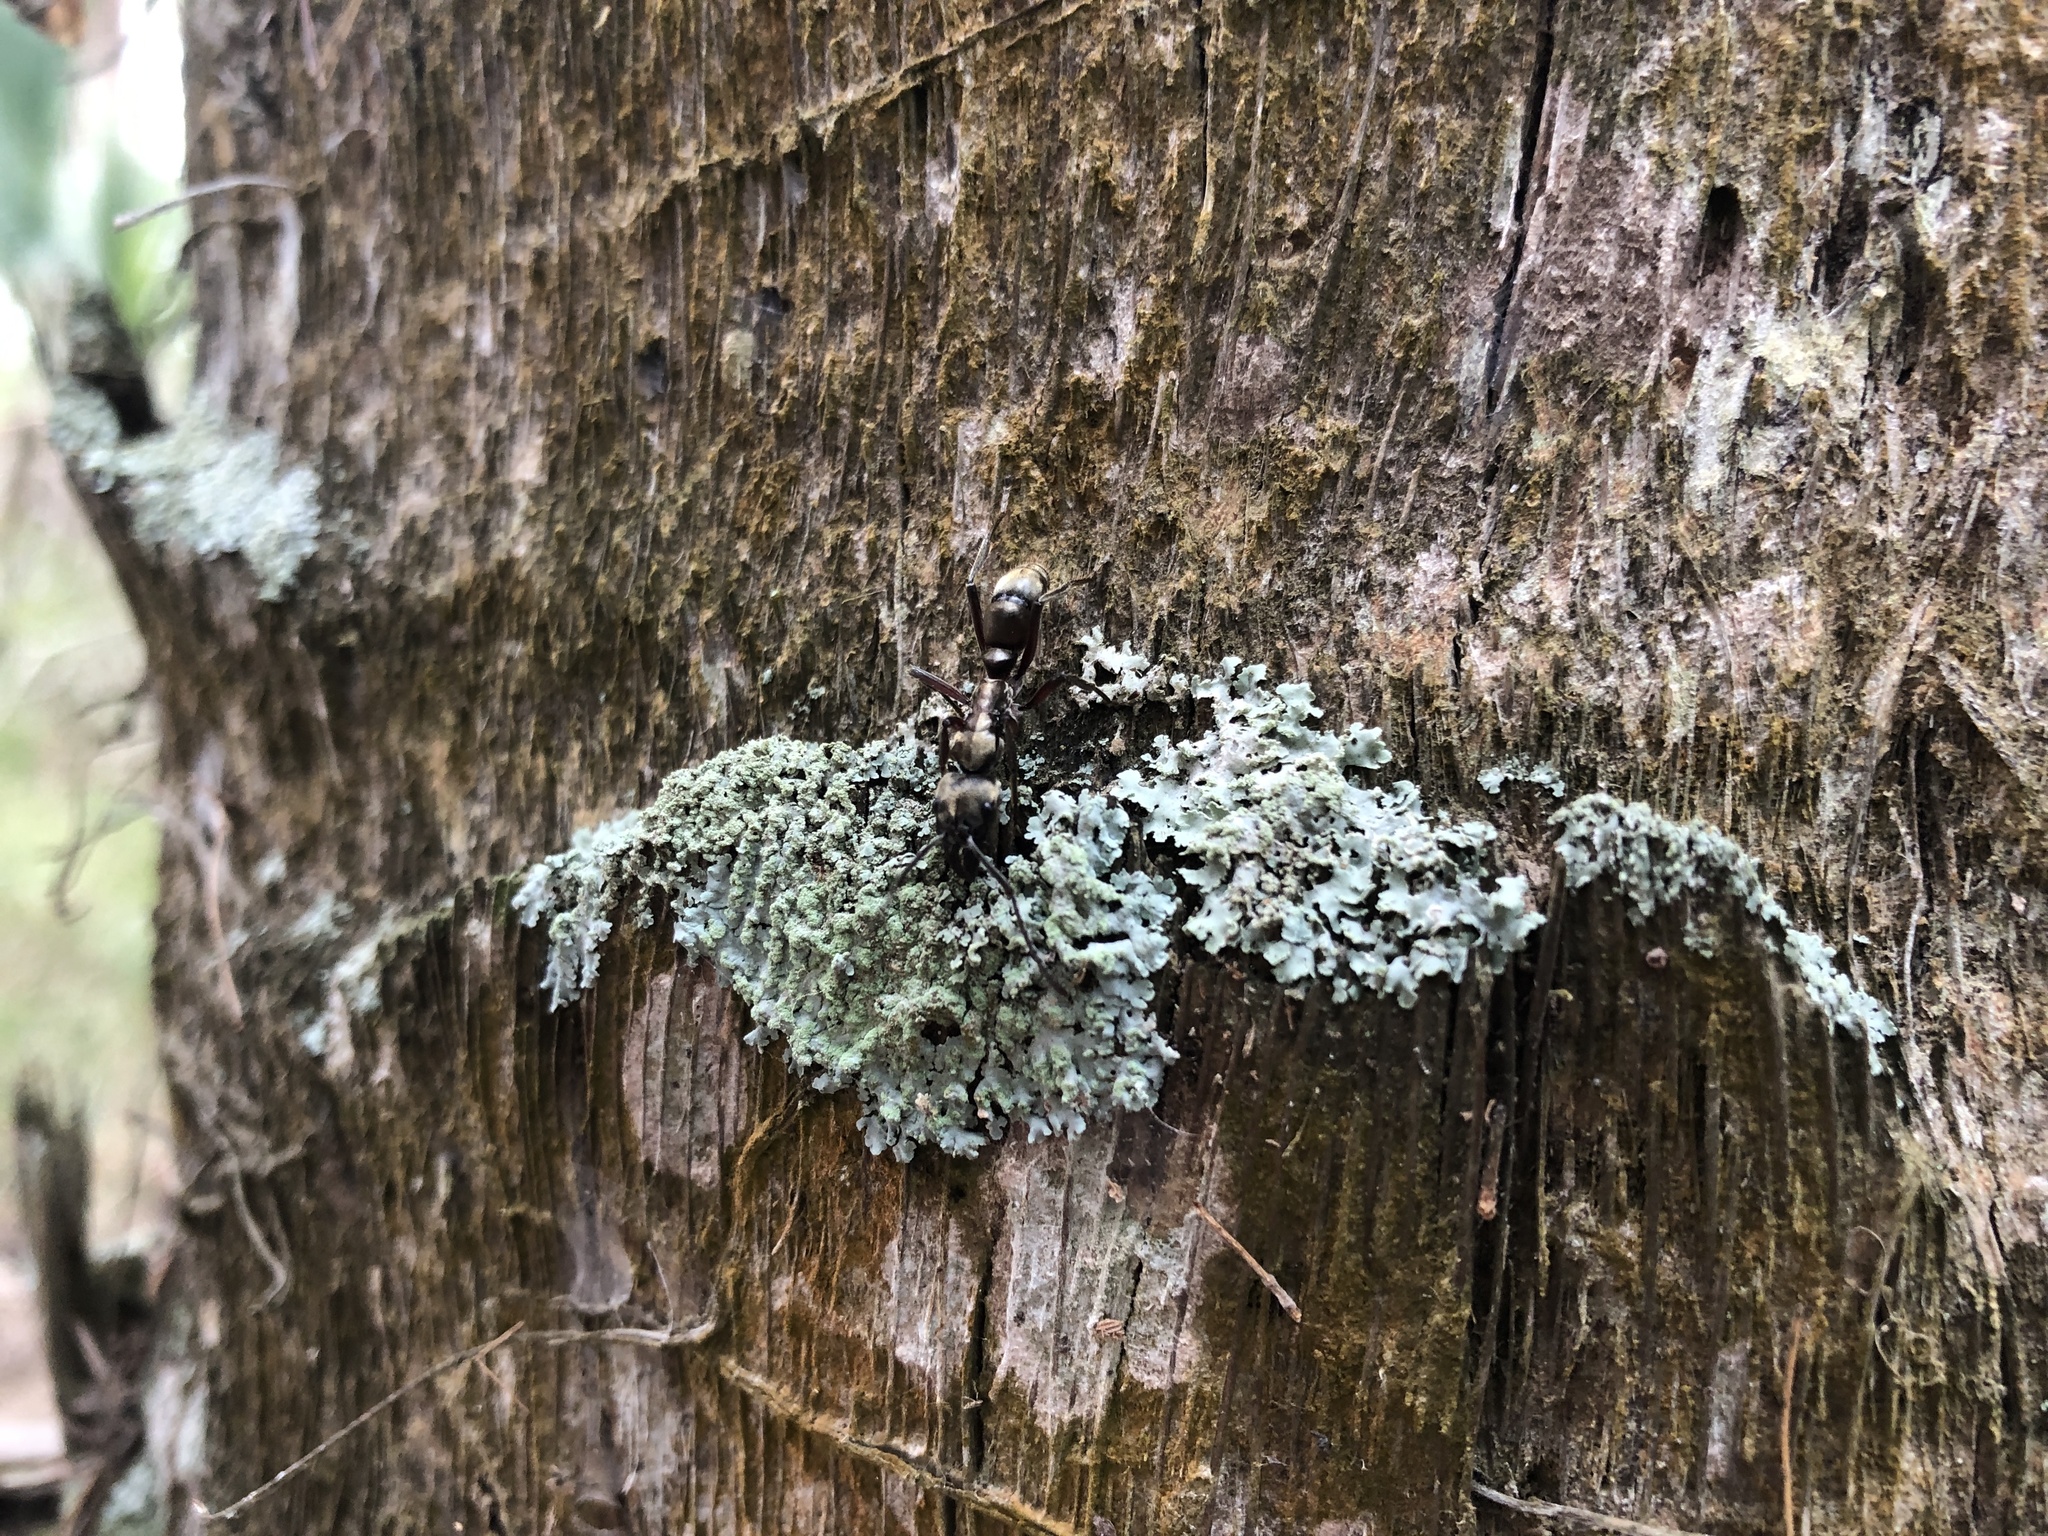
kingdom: Animalia
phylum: Arthropoda
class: Insecta
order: Hymenoptera
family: Formicidae
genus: Pachycondyla
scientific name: Pachycondyla villosa
